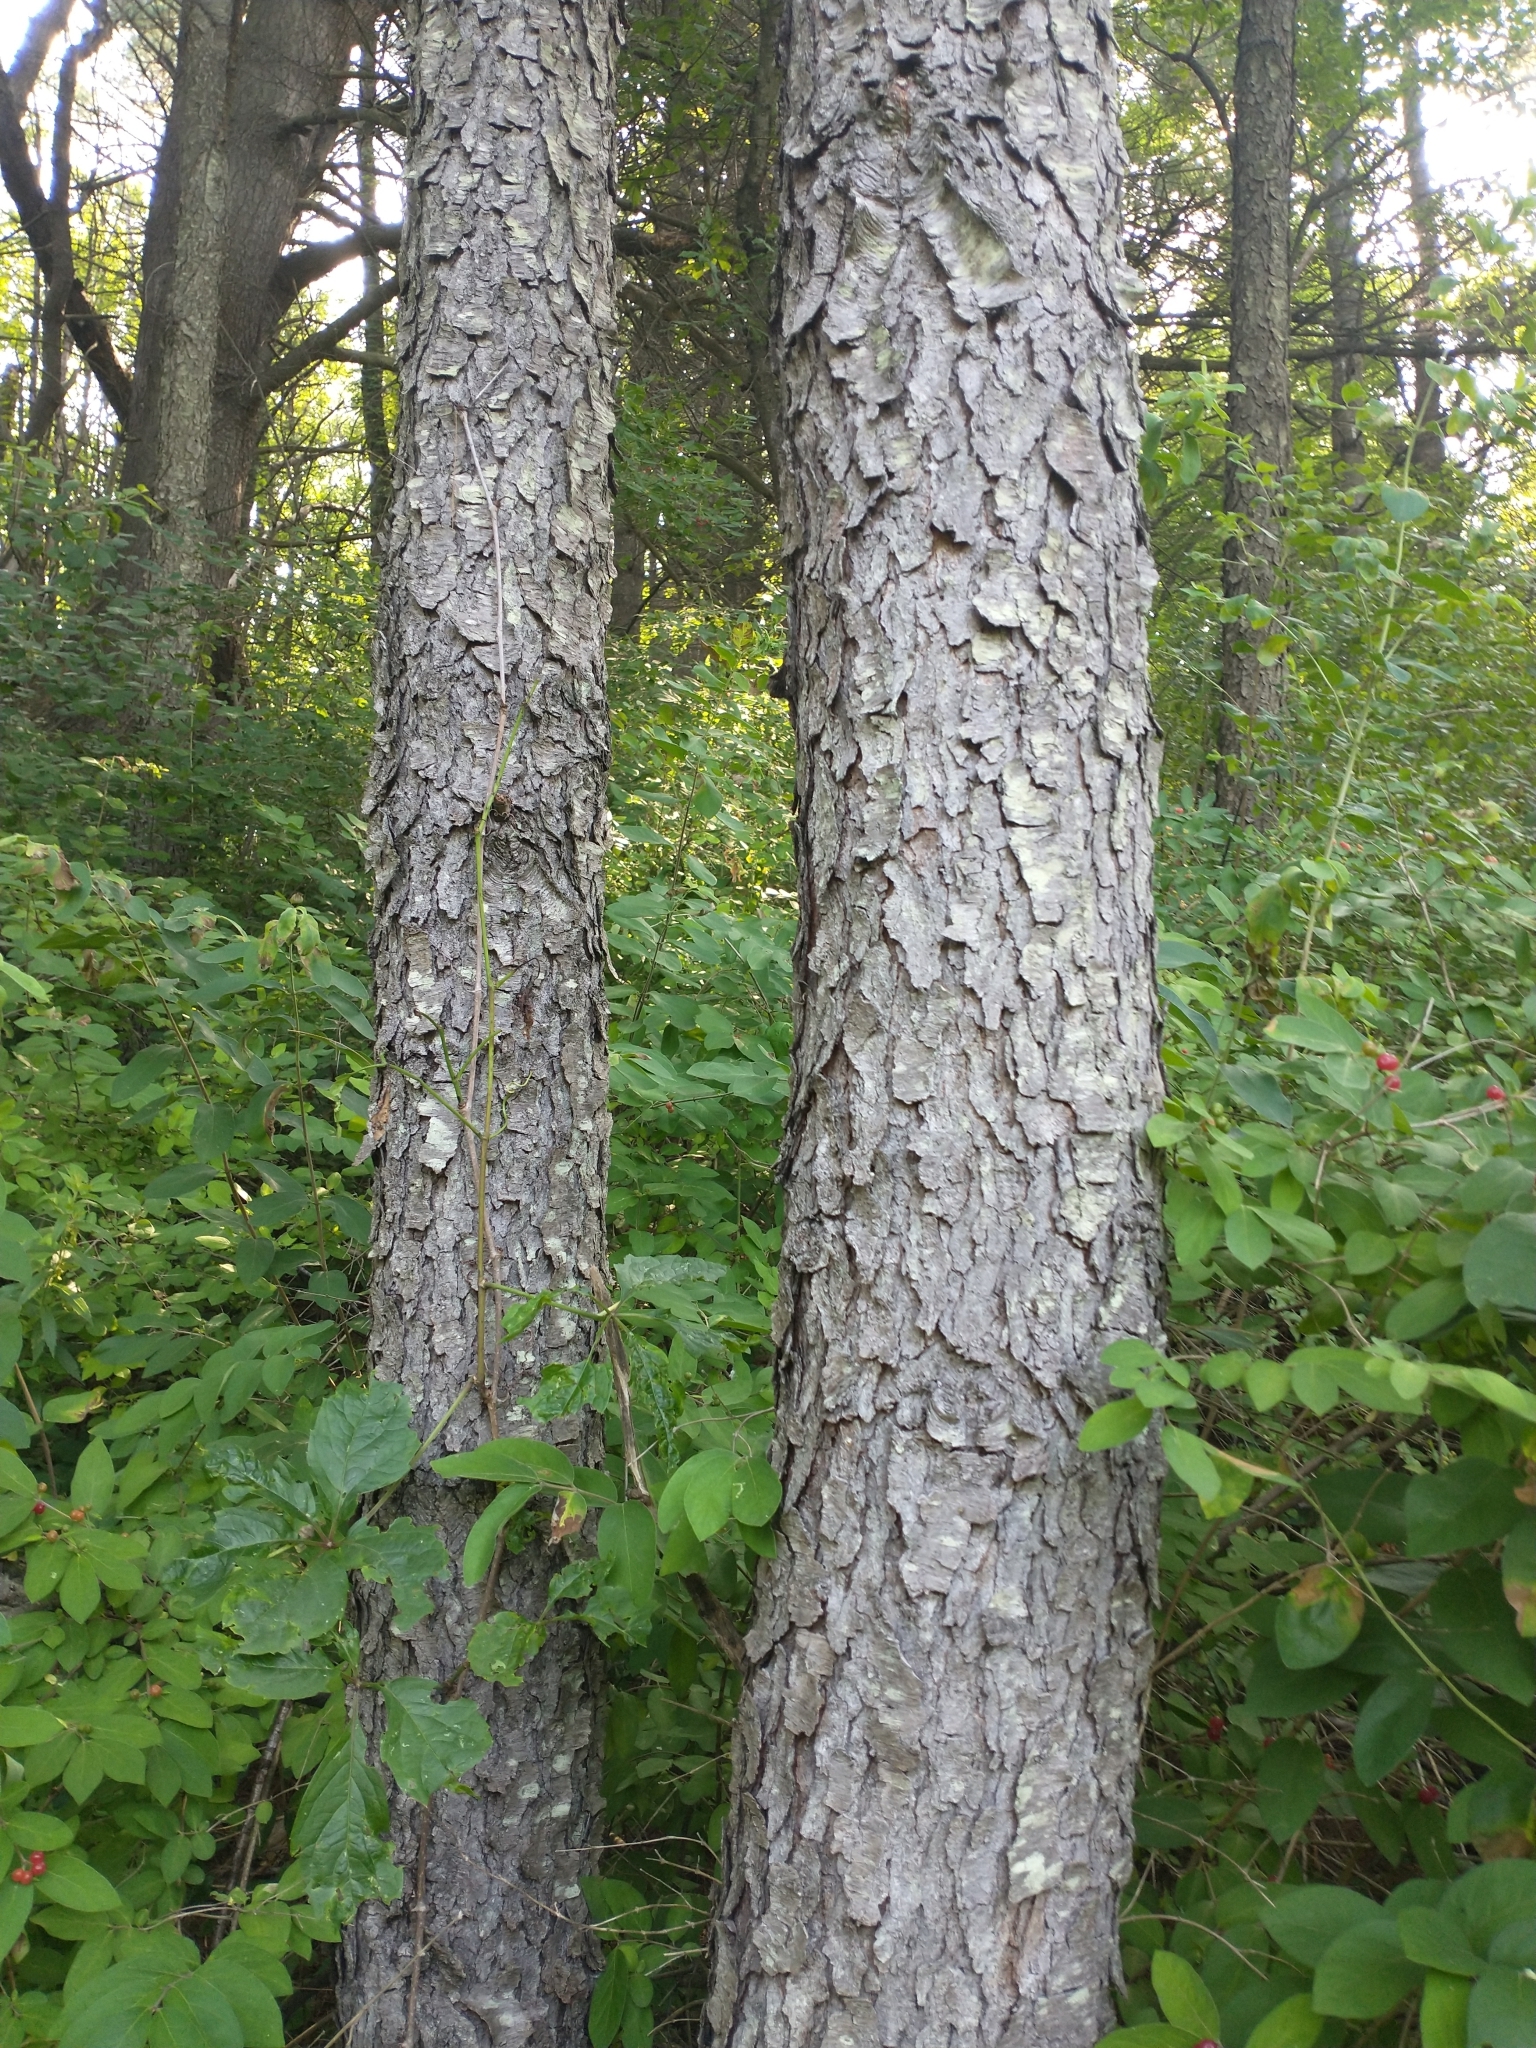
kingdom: Plantae
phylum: Tracheophyta
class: Magnoliopsida
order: Rosales
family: Rosaceae
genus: Prunus
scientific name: Prunus serotina
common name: Black cherry
